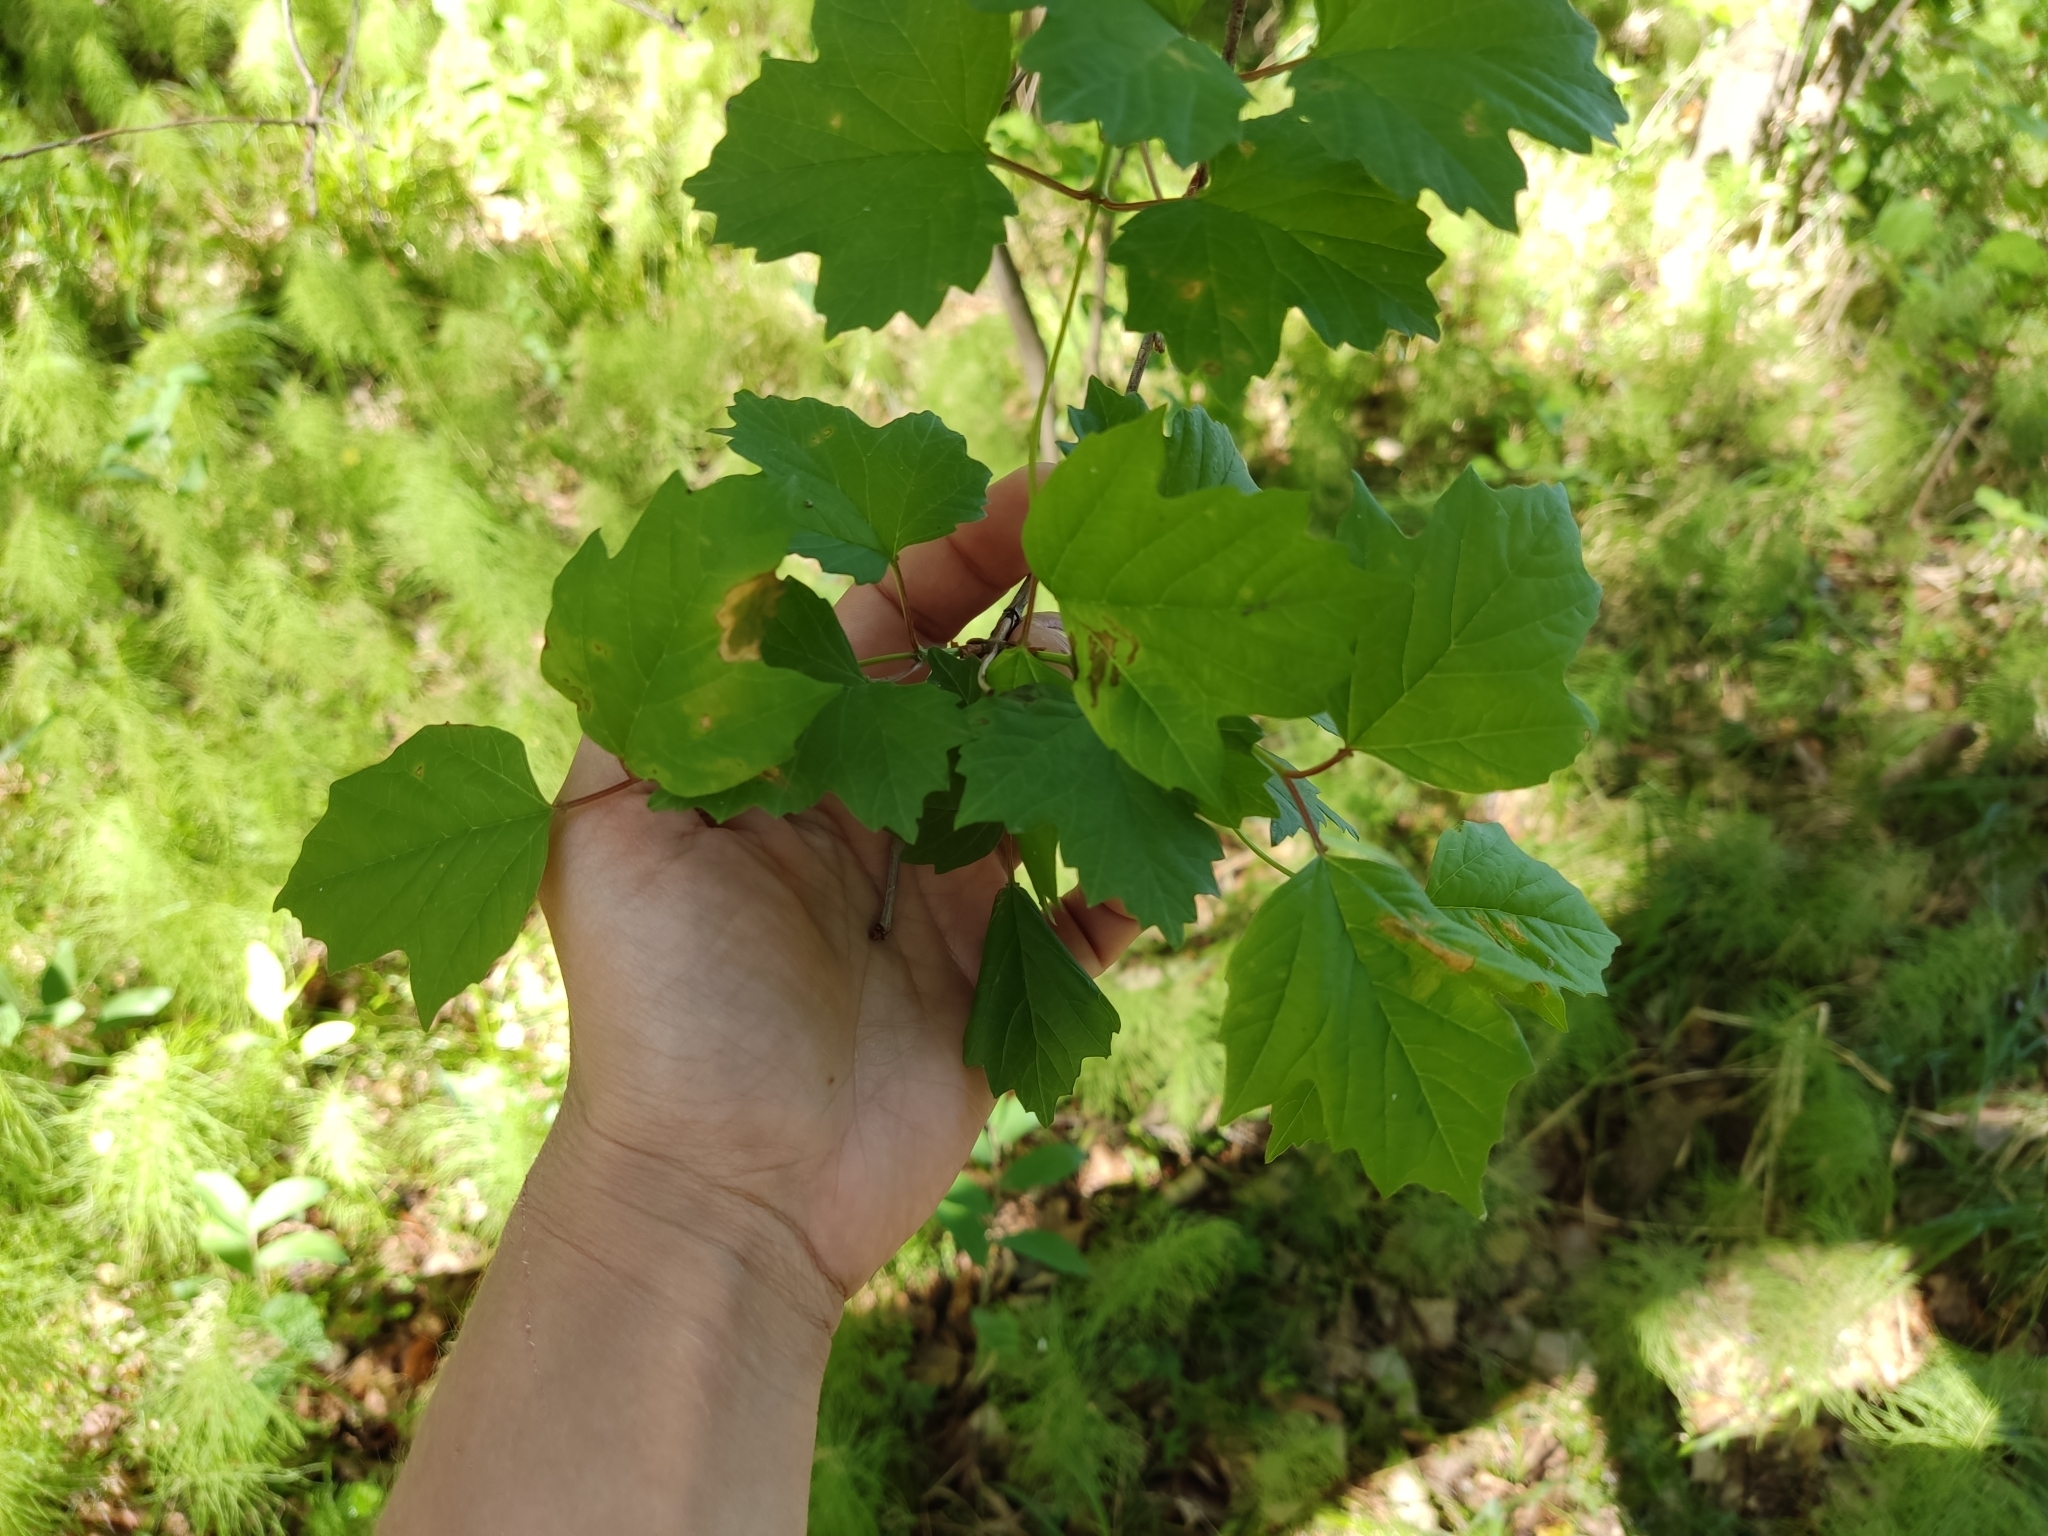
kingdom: Plantae
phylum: Tracheophyta
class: Magnoliopsida
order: Dipsacales
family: Viburnaceae
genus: Viburnum
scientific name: Viburnum opulus
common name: Guelder-rose
